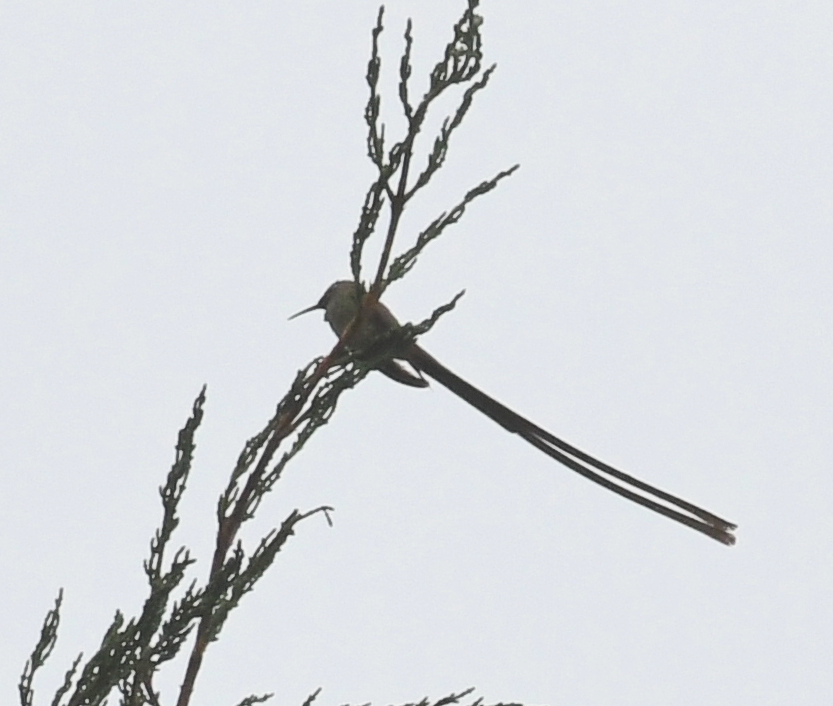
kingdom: Animalia
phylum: Chordata
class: Aves
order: Apodiformes
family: Trochilidae
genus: Lesbia
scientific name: Lesbia victoriae
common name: Black-tailed trainbearer
